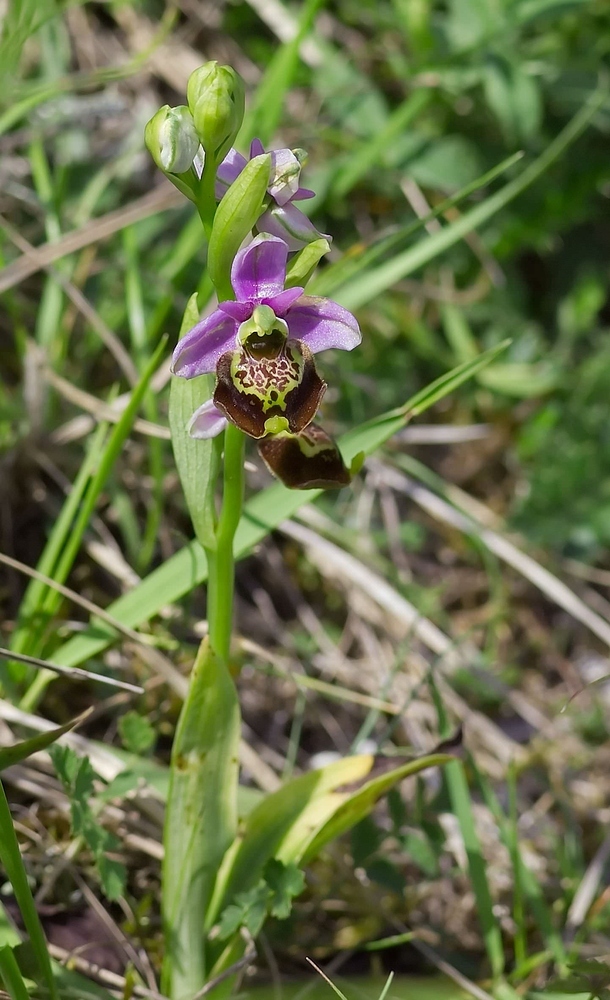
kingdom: Plantae
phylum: Tracheophyta
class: Liliopsida
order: Asparagales
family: Orchidaceae
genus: Ophrys
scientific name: Ophrys holosericea
